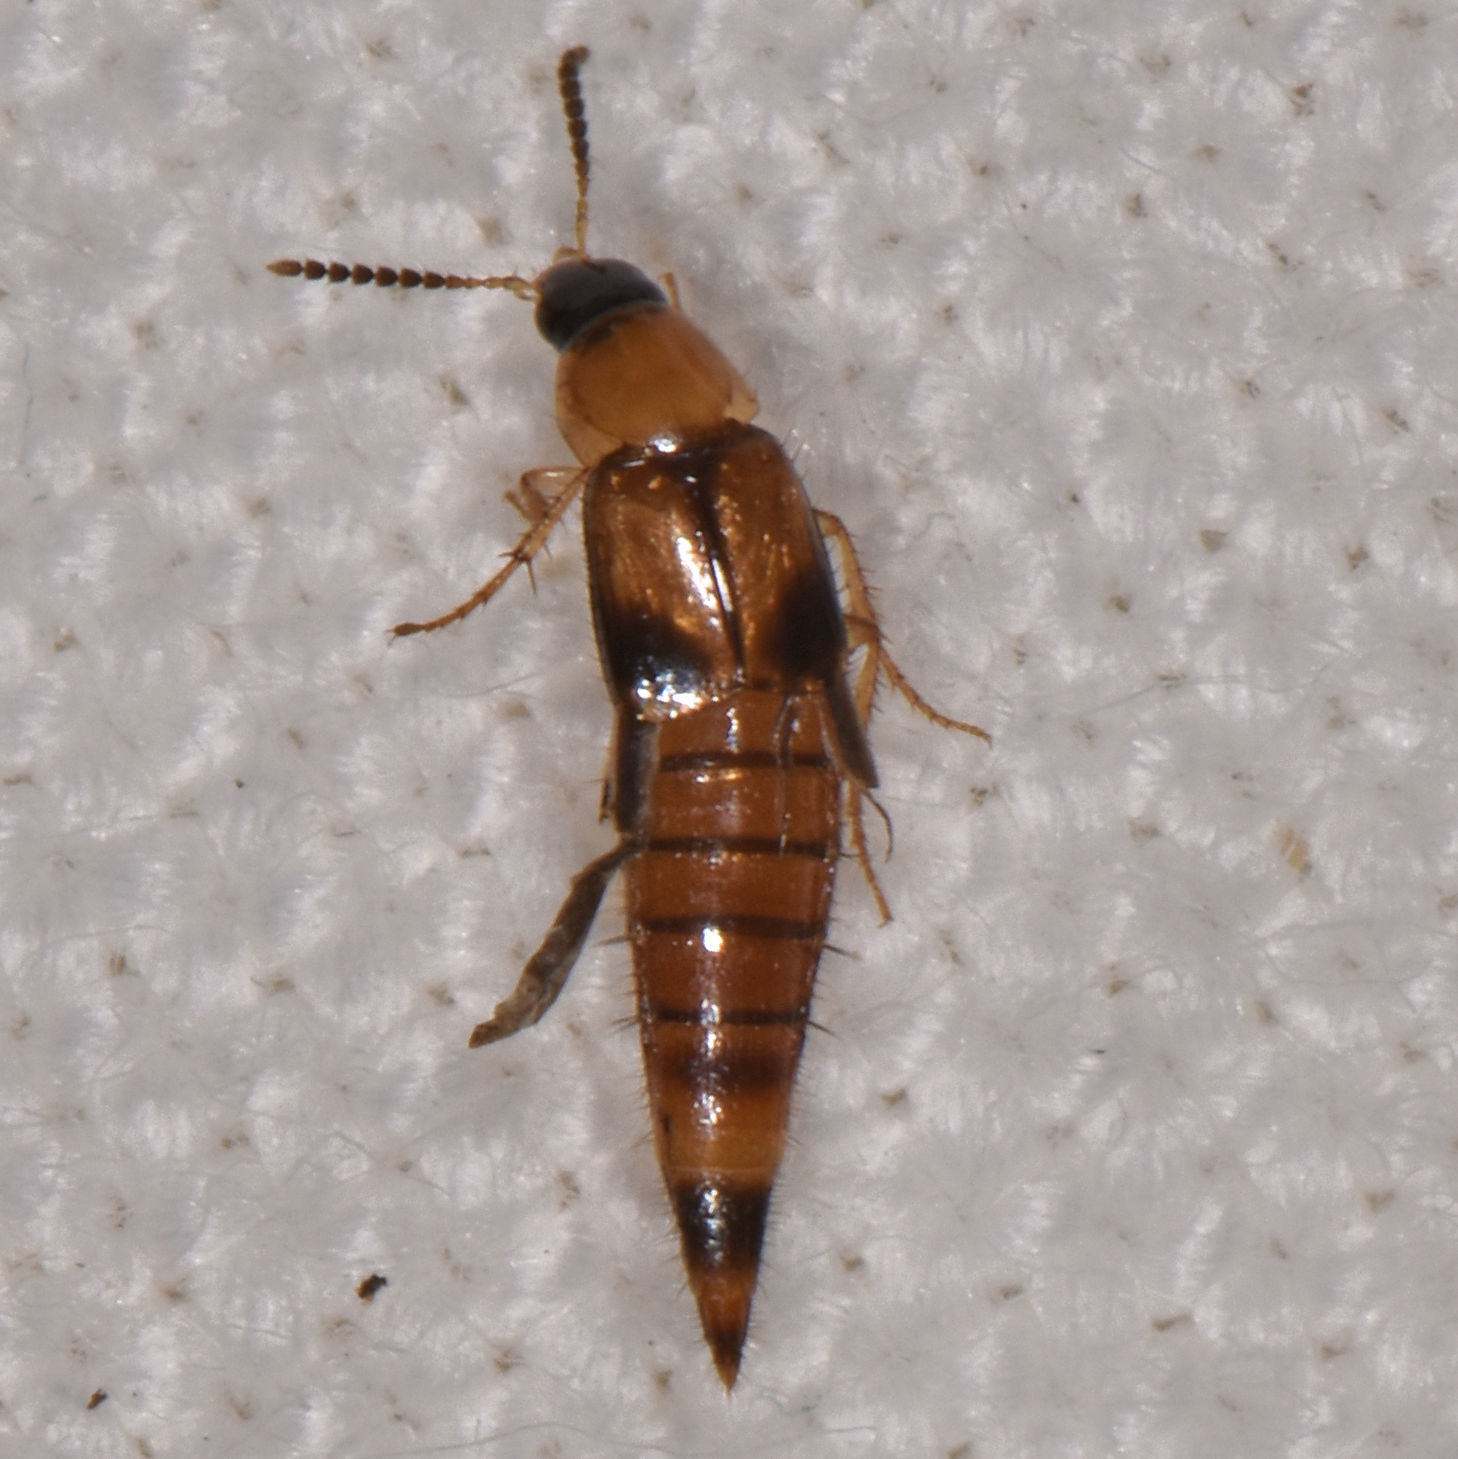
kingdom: Animalia
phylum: Arthropoda
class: Insecta
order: Coleoptera
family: Staphylinidae
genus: Lordithon
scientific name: Lordithon facilis
